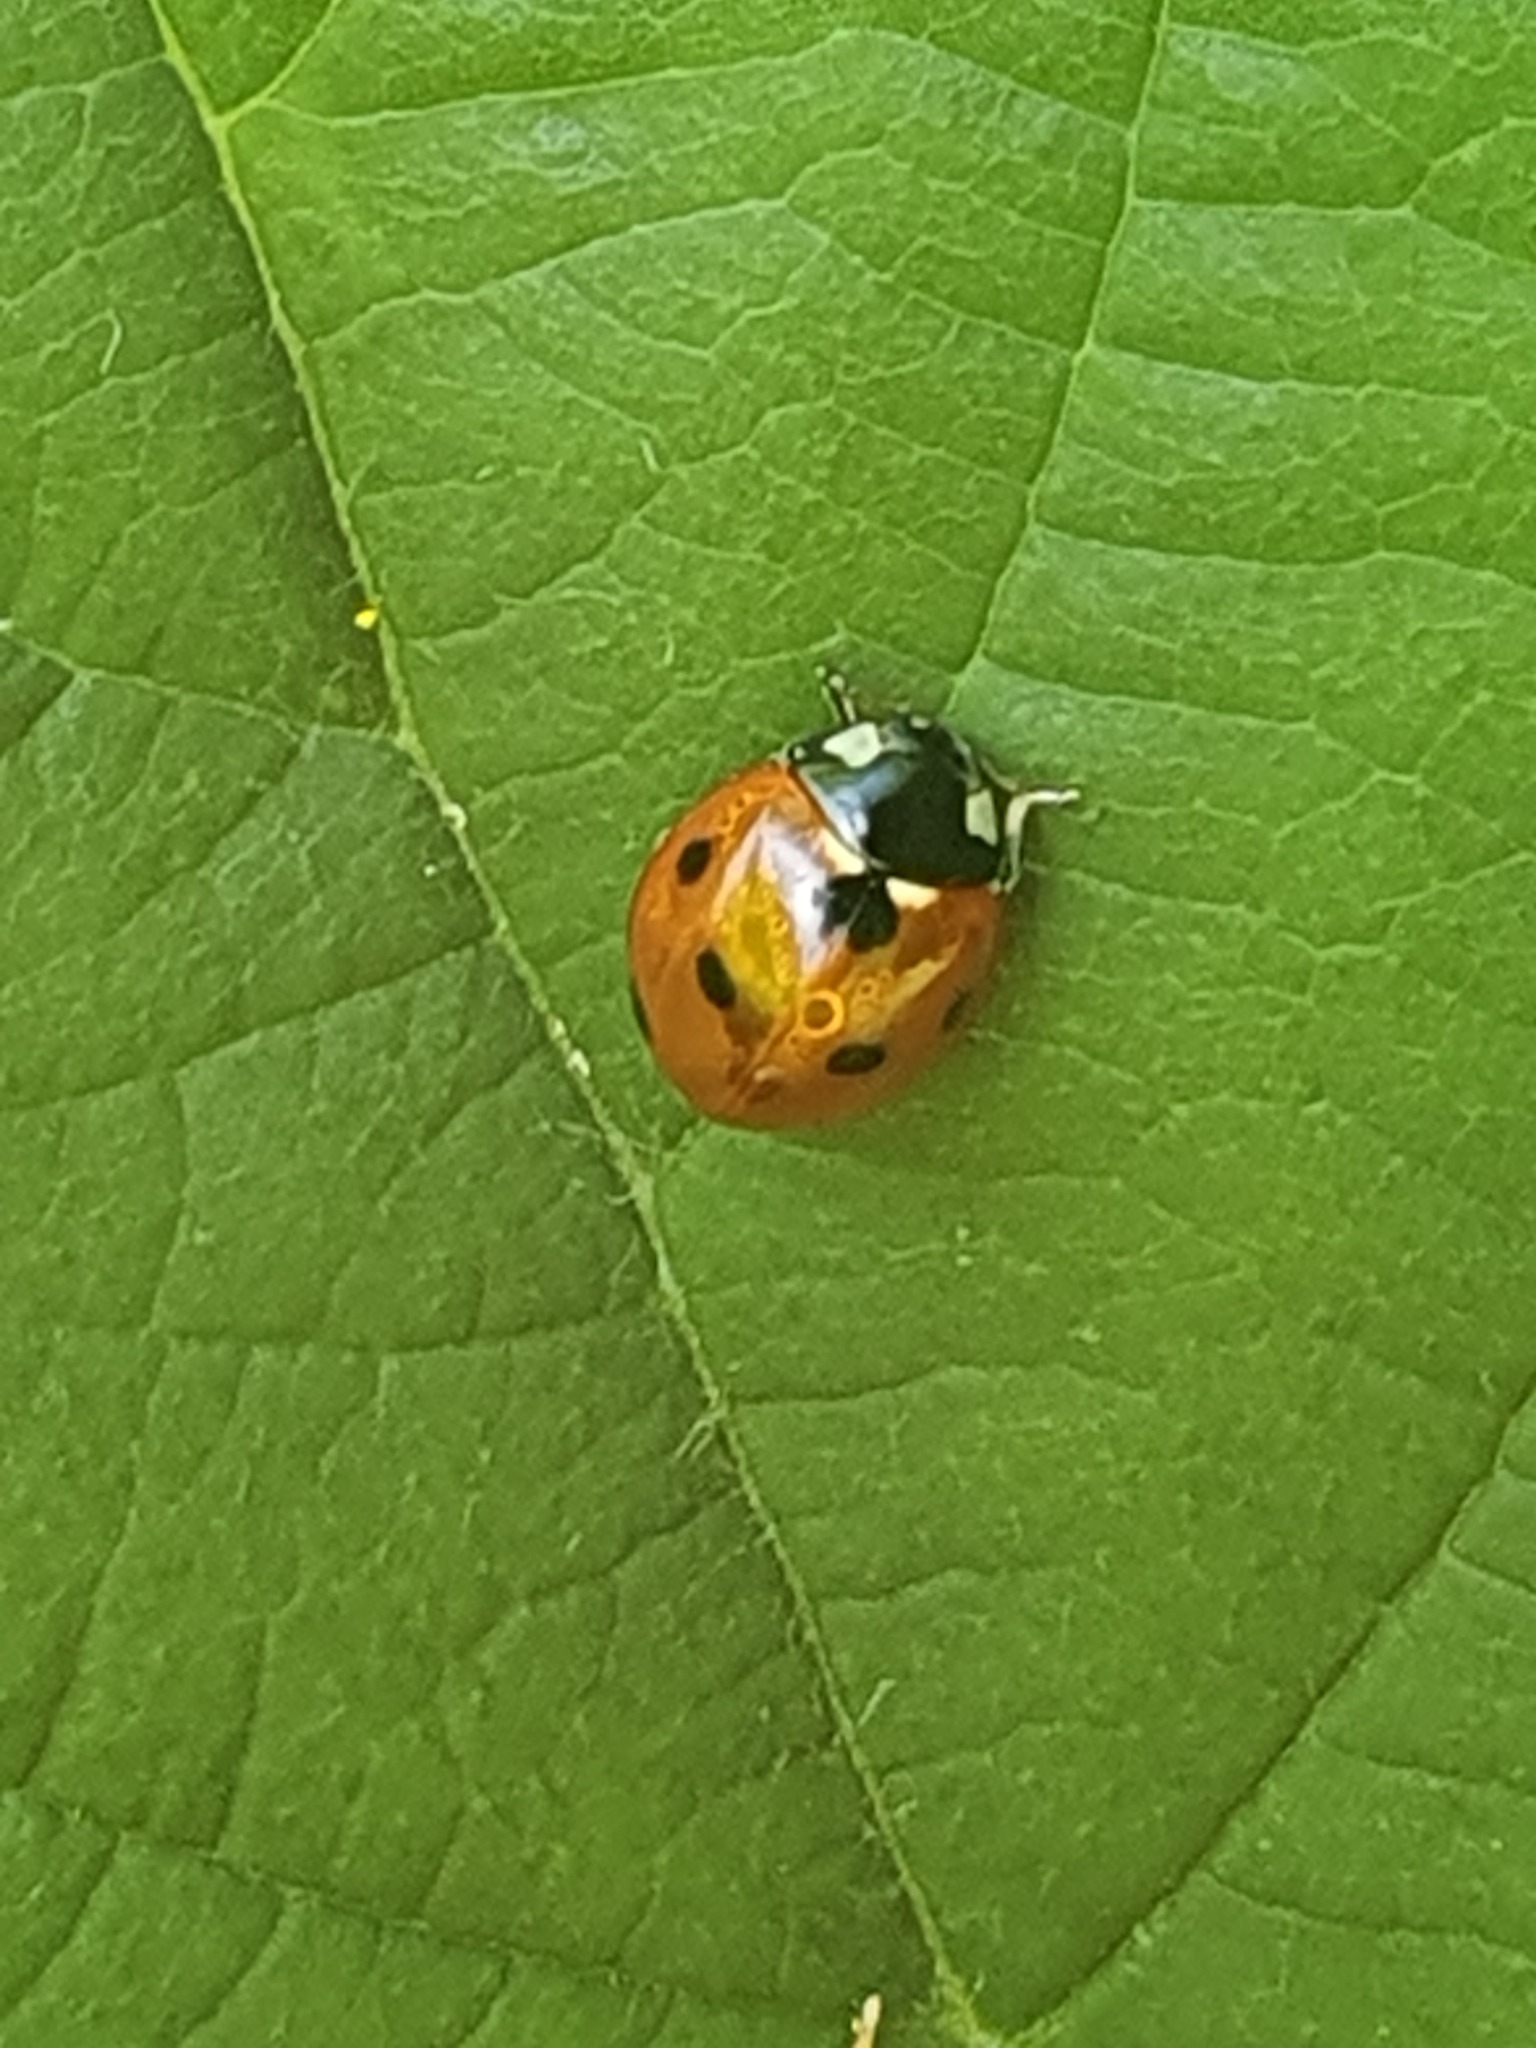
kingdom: Animalia
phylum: Arthropoda
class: Insecta
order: Coleoptera
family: Coccinellidae
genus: Coccinella
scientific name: Coccinella septempunctata
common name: Sevenspotted lady beetle
